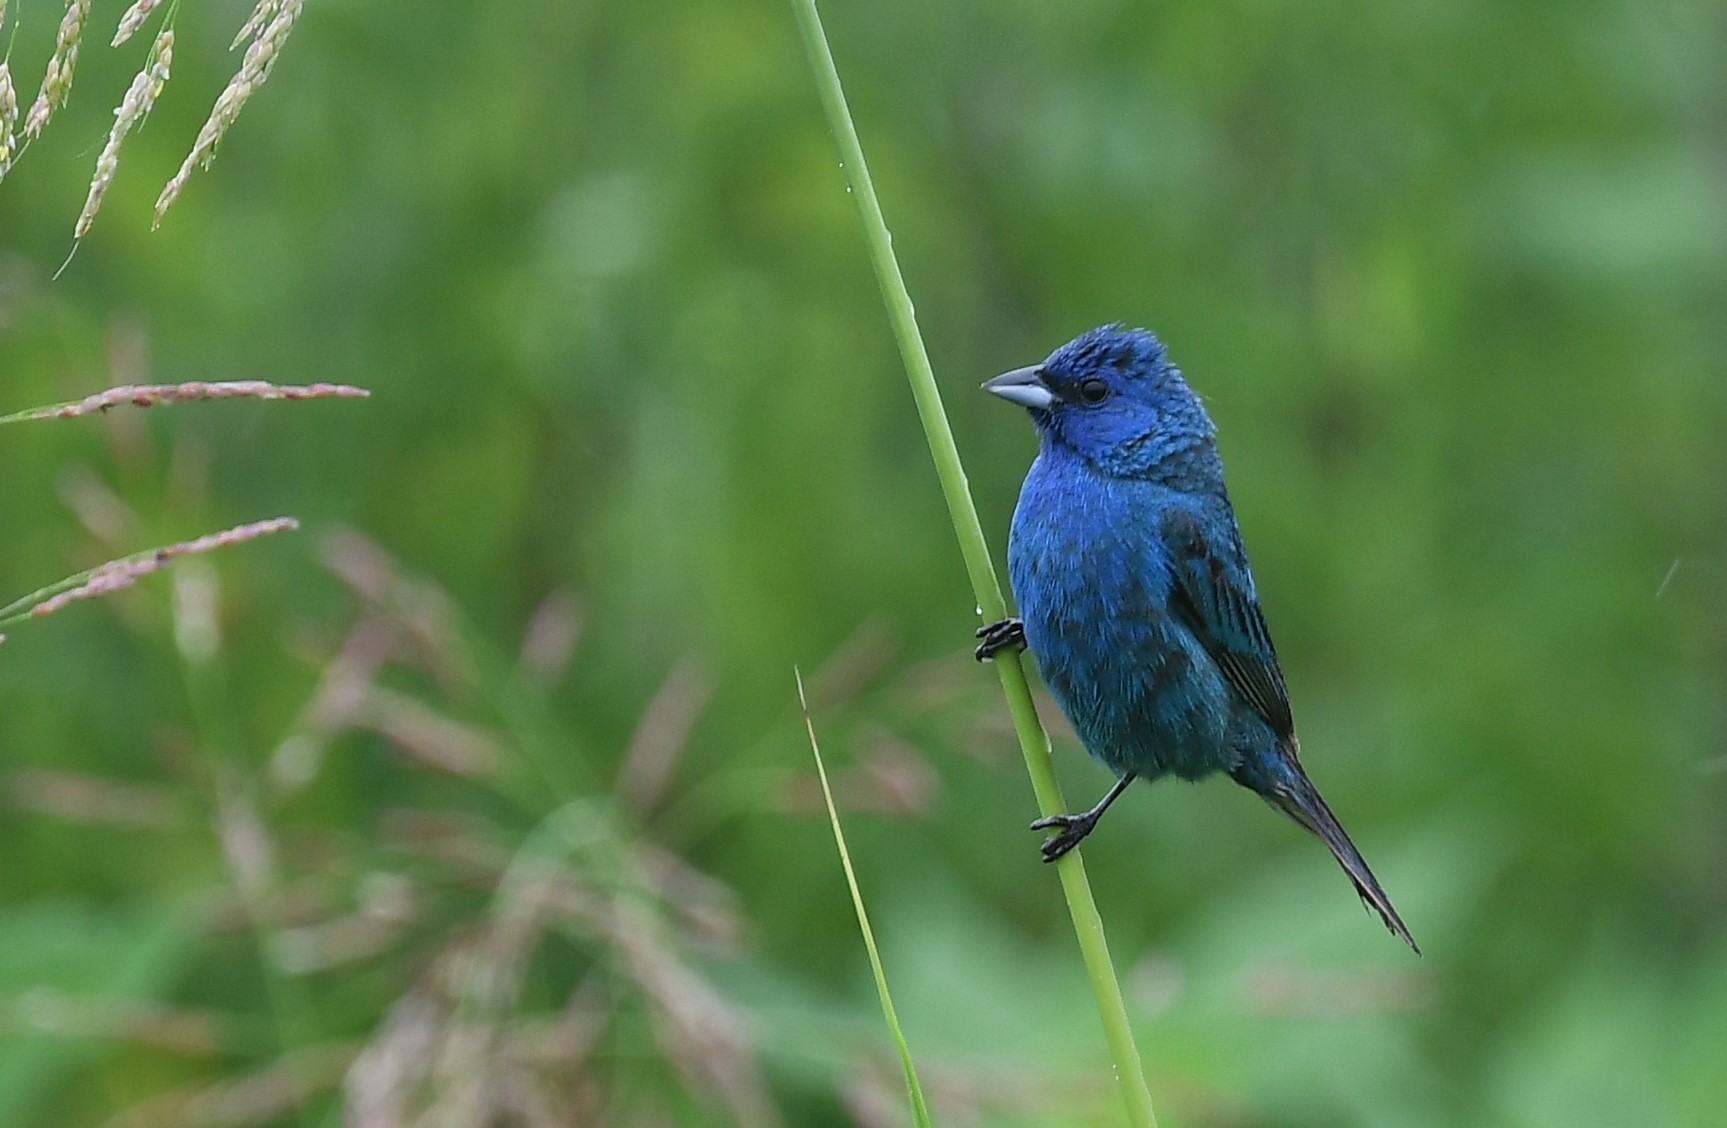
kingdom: Animalia
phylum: Chordata
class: Aves
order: Passeriformes
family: Cardinalidae
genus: Passerina
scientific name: Passerina cyanea
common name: Indigo bunting
